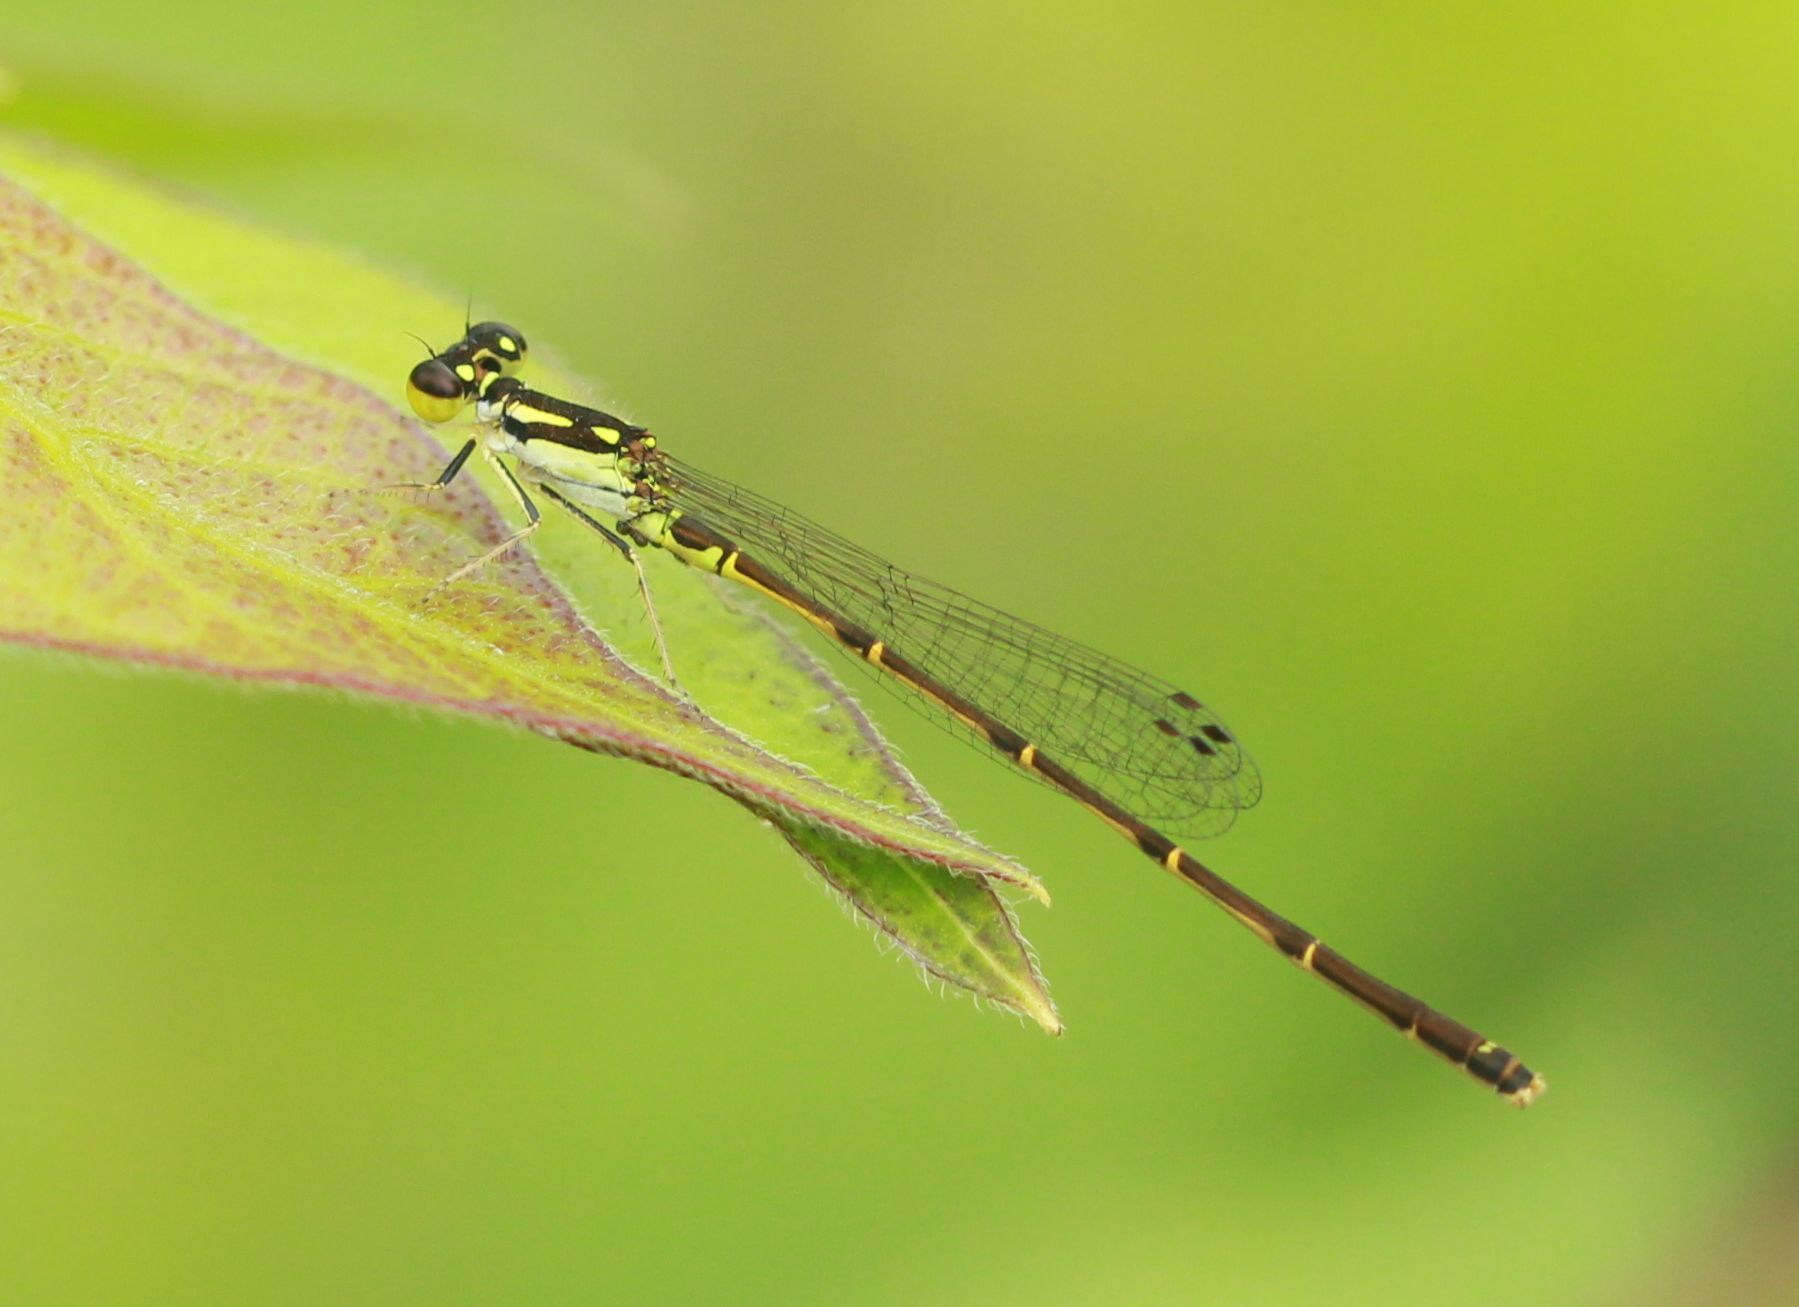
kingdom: Animalia
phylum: Arthropoda
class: Insecta
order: Odonata
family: Coenagrionidae
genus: Ischnura
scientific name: Ischnura posita
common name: Fragile forktail
